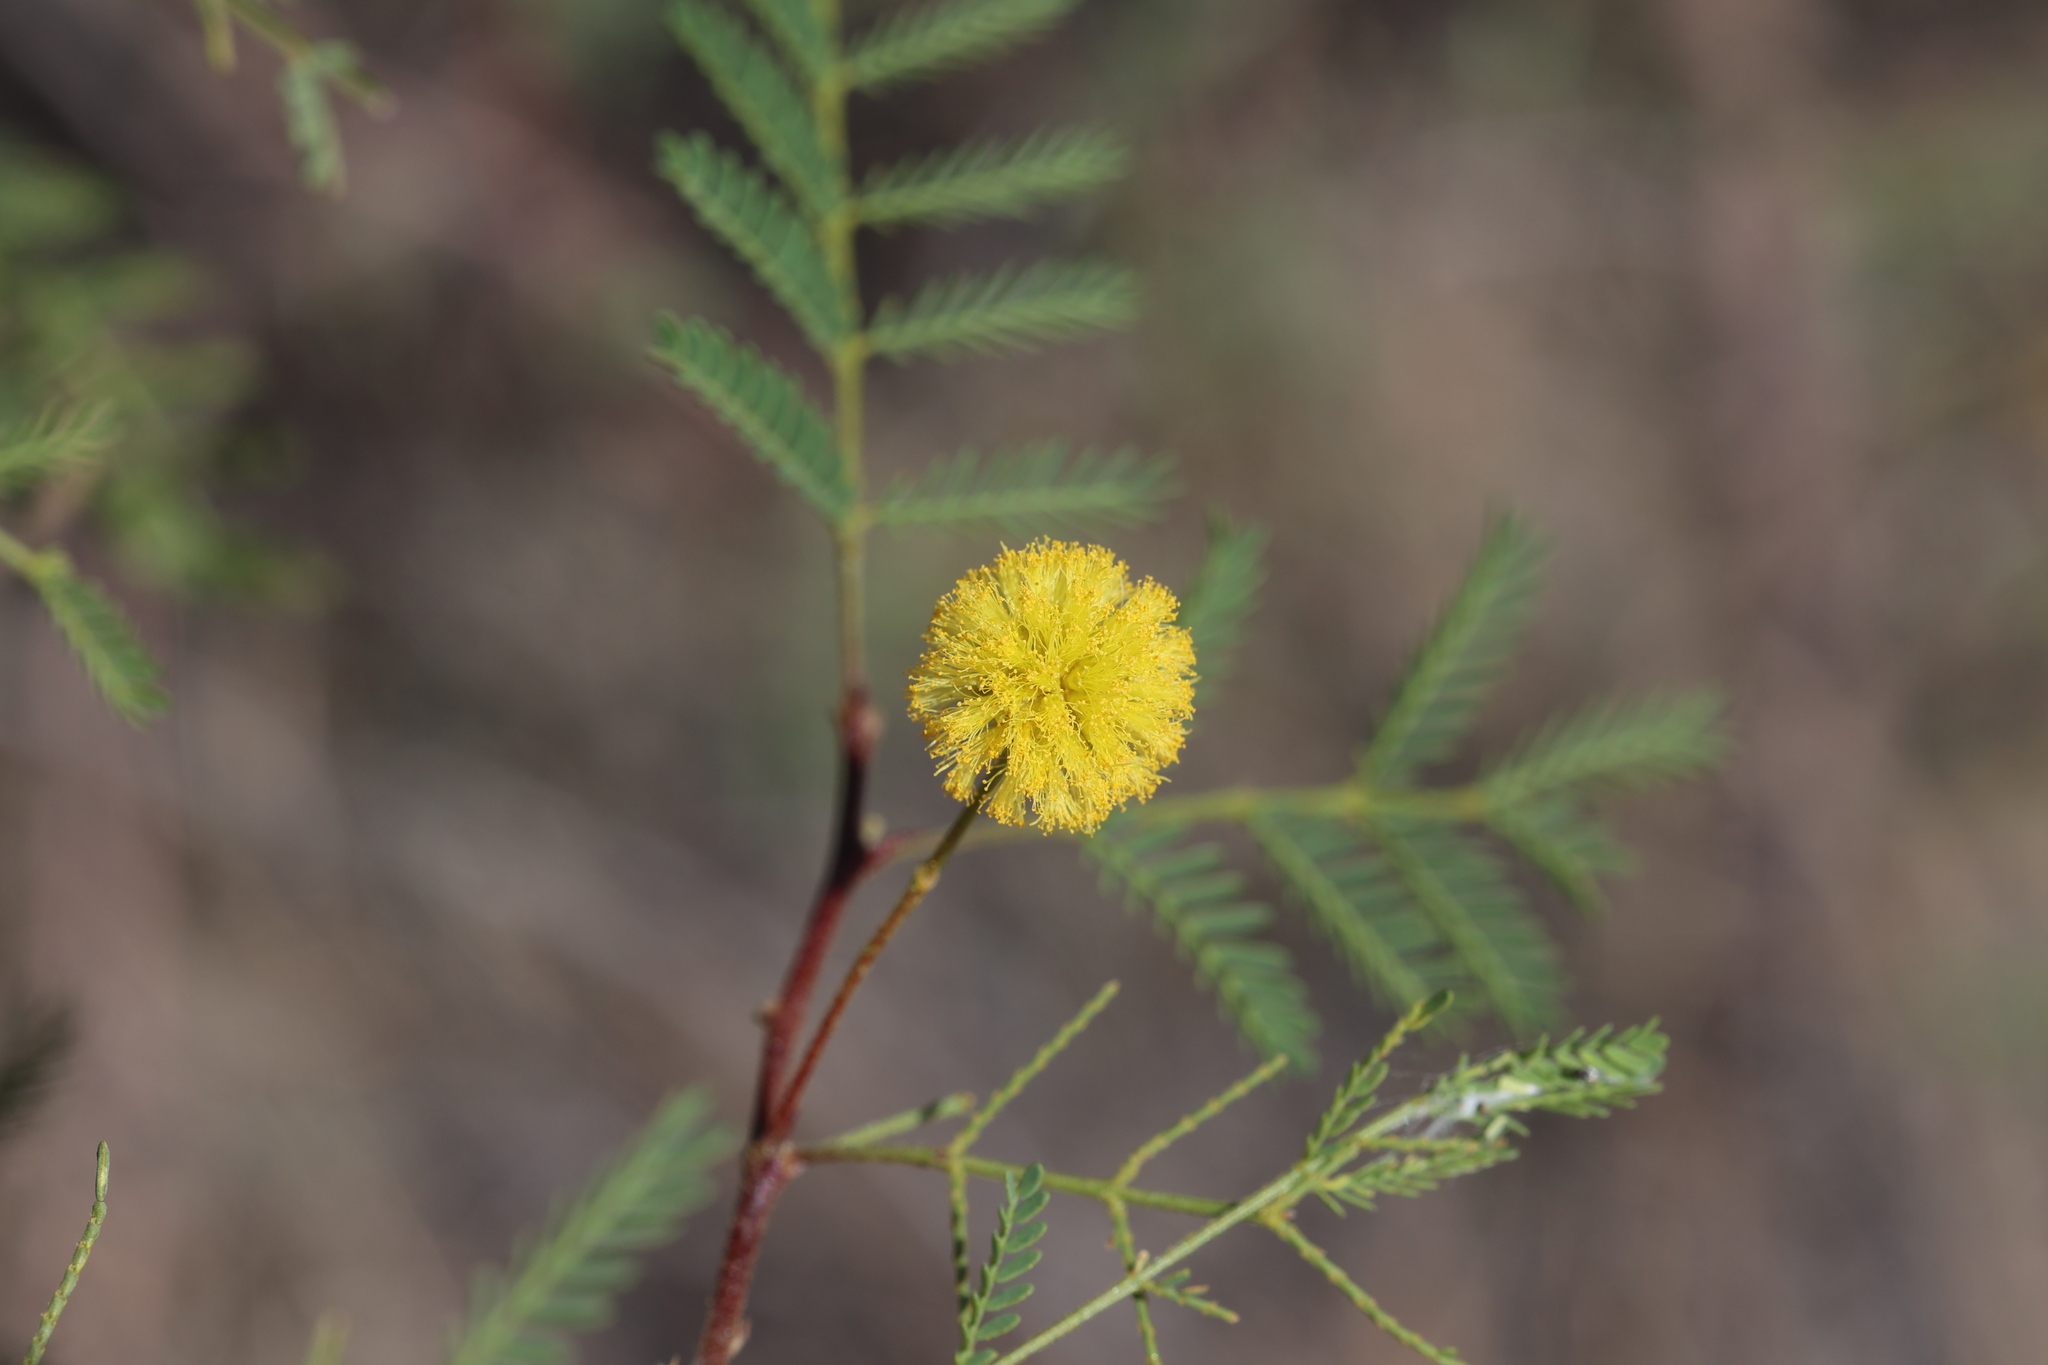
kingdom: Plantae
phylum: Tracheophyta
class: Magnoliopsida
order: Fabales
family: Fabaceae
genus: Vachellia
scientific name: Vachellia constricta
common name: Mescat acacia
